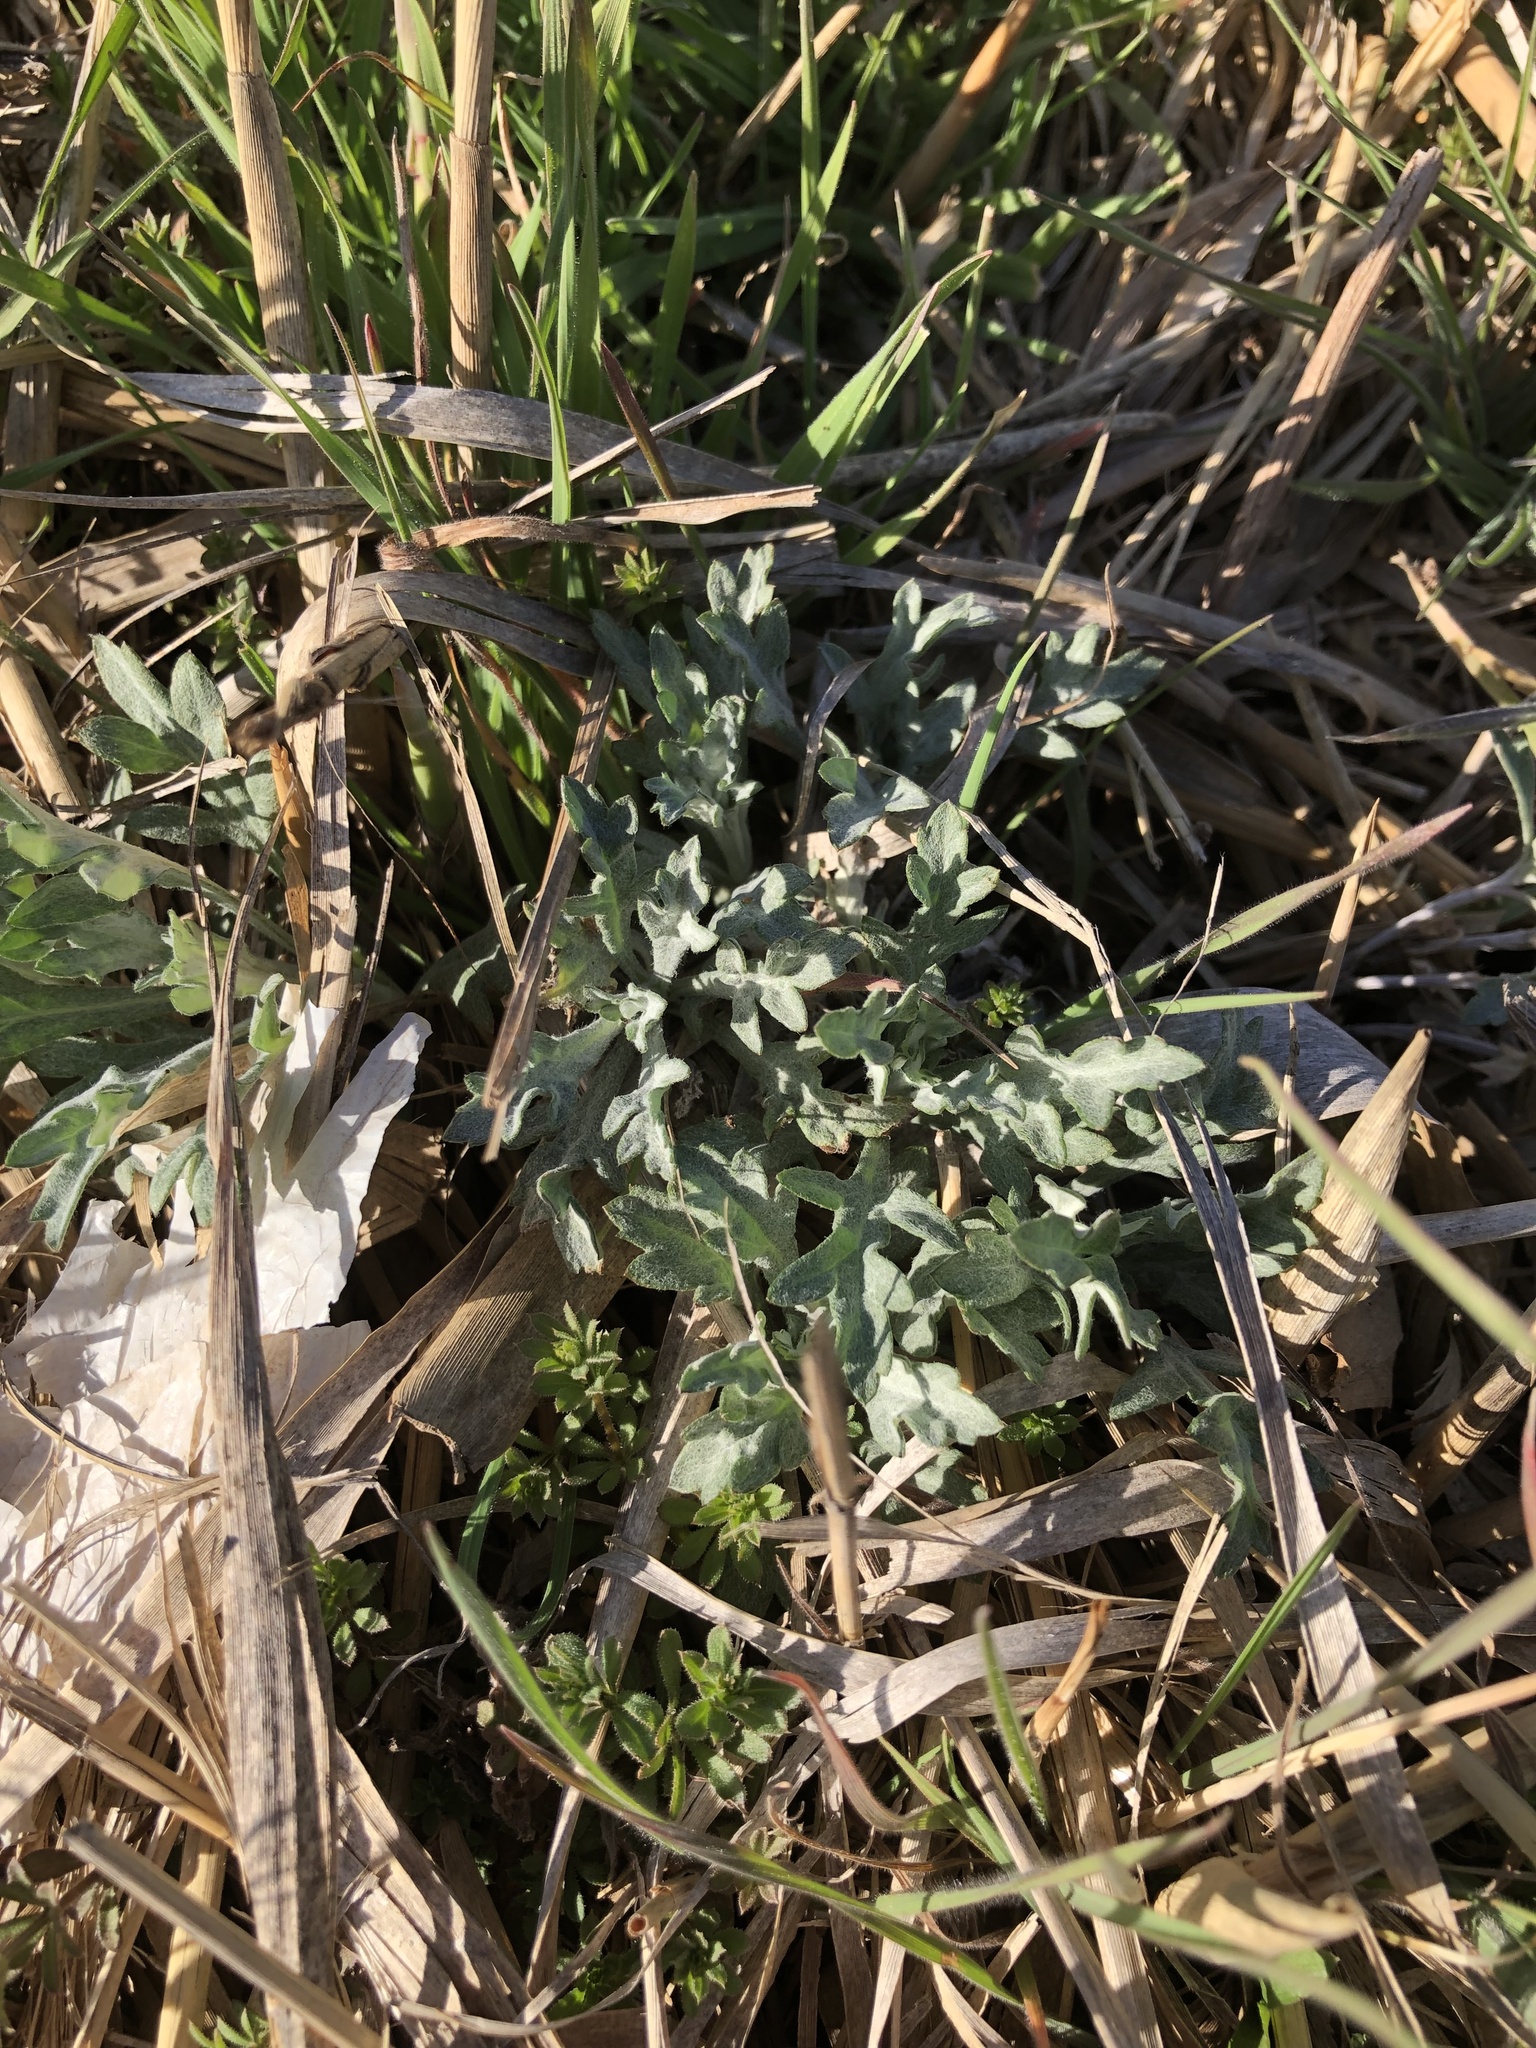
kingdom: Plantae
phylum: Tracheophyta
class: Magnoliopsida
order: Asterales
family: Asteraceae
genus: Artemisia
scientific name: Artemisia ludoviciana
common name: Western mugwort
